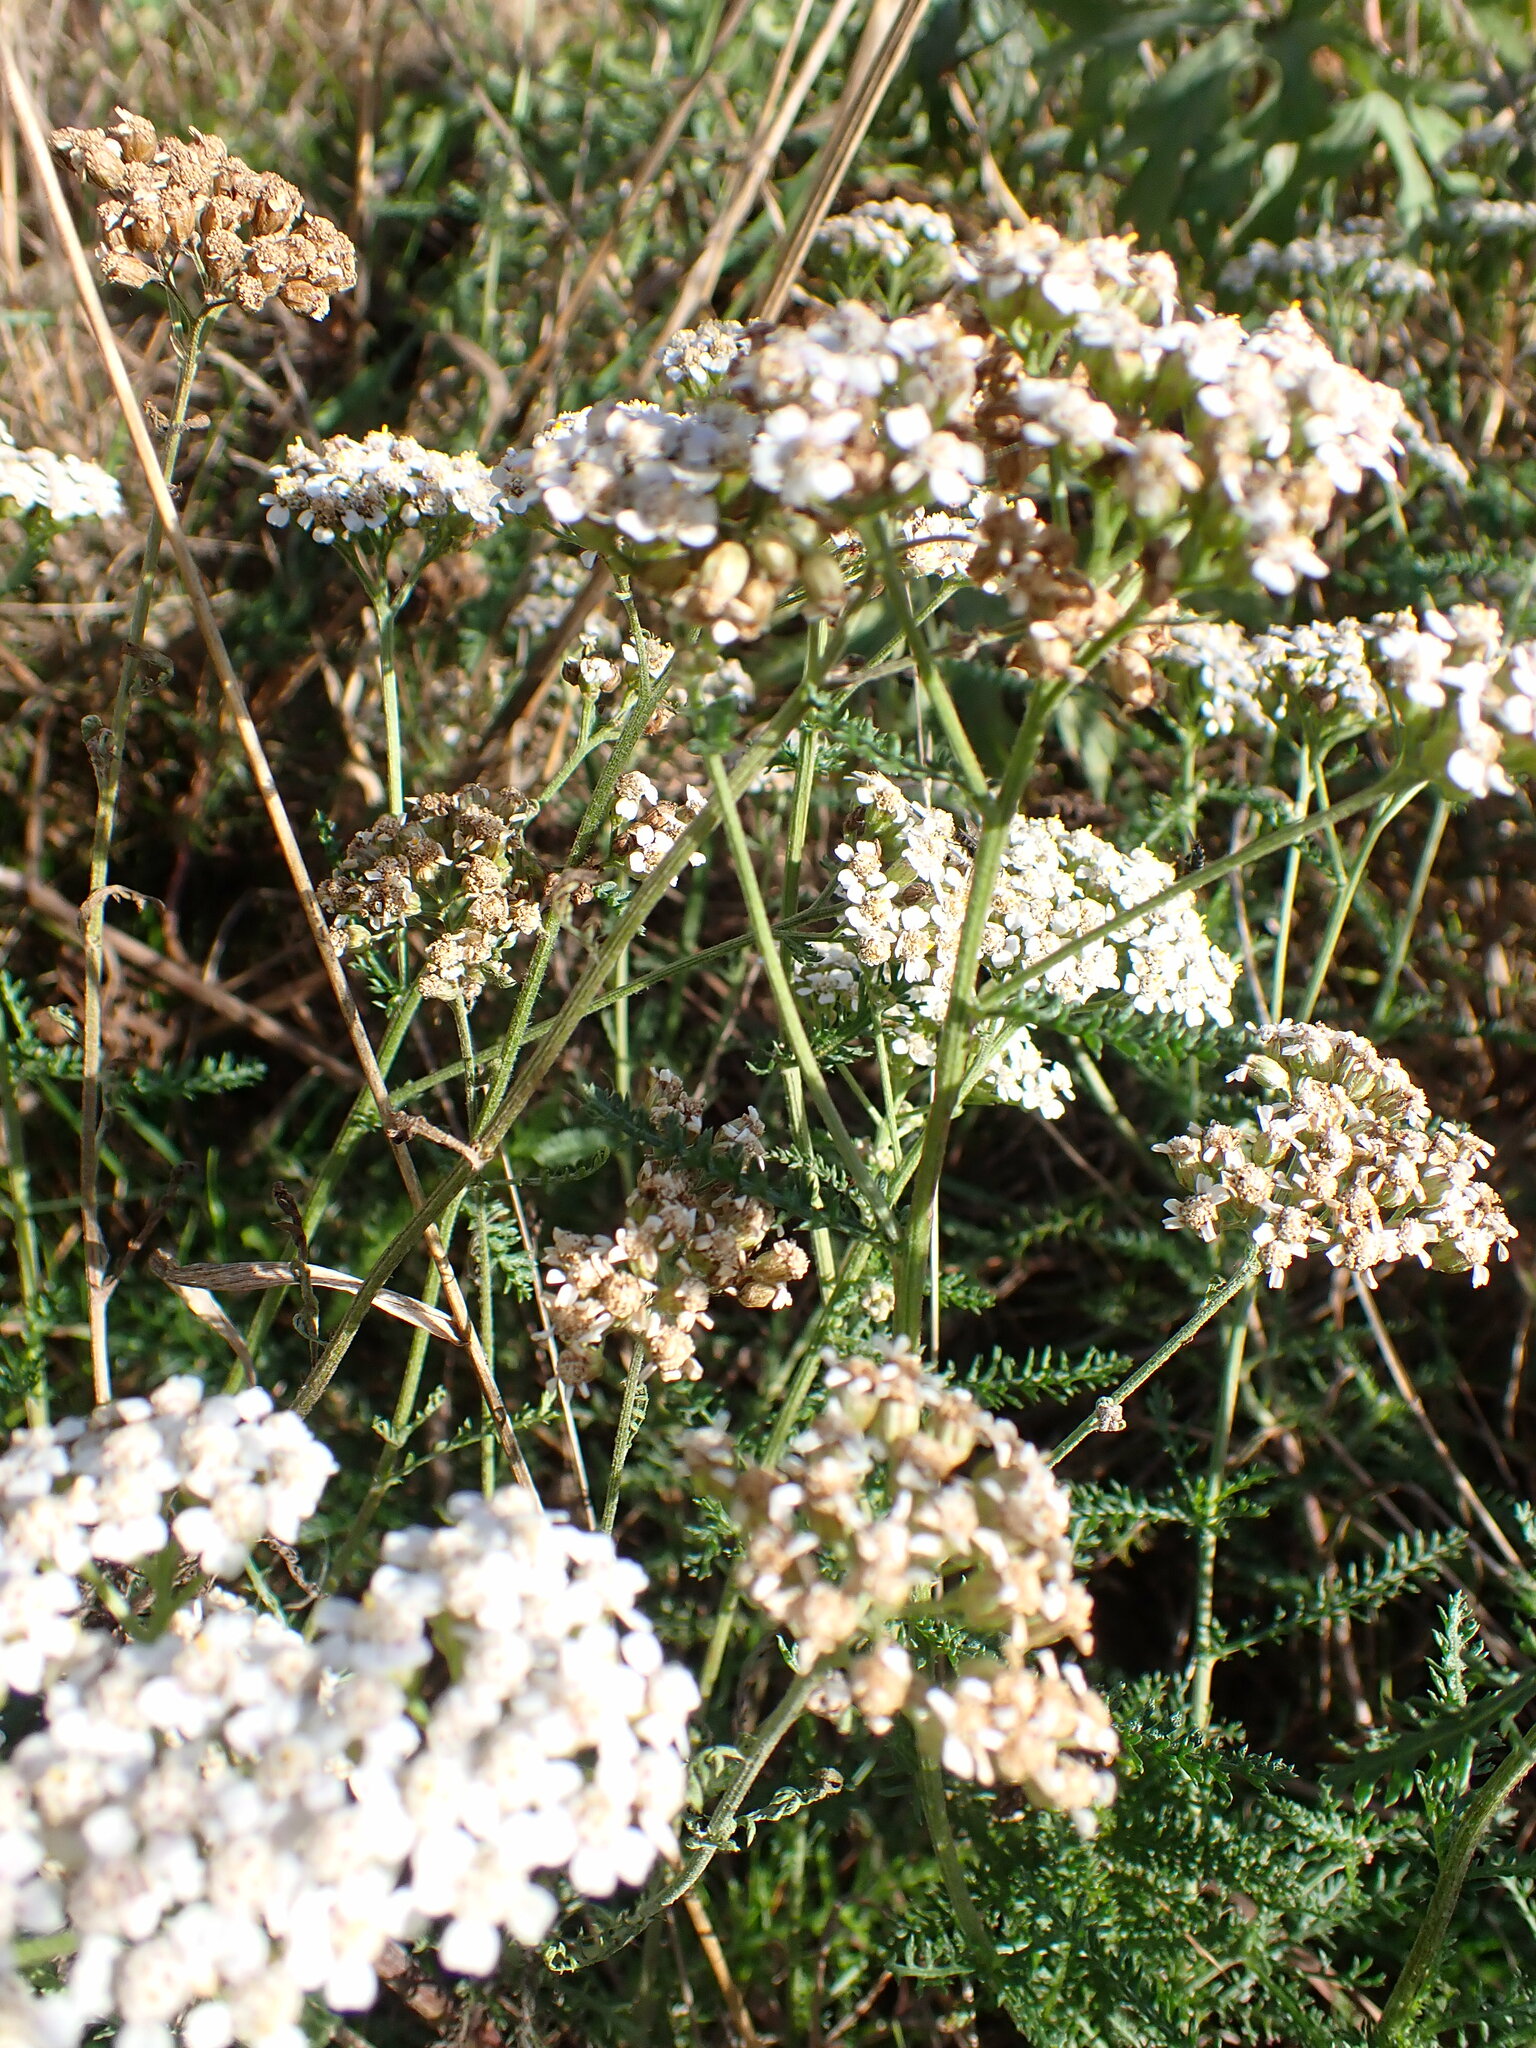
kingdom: Plantae
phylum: Tracheophyta
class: Magnoliopsida
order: Asterales
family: Asteraceae
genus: Achillea
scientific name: Achillea millefolium
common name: Yarrow
